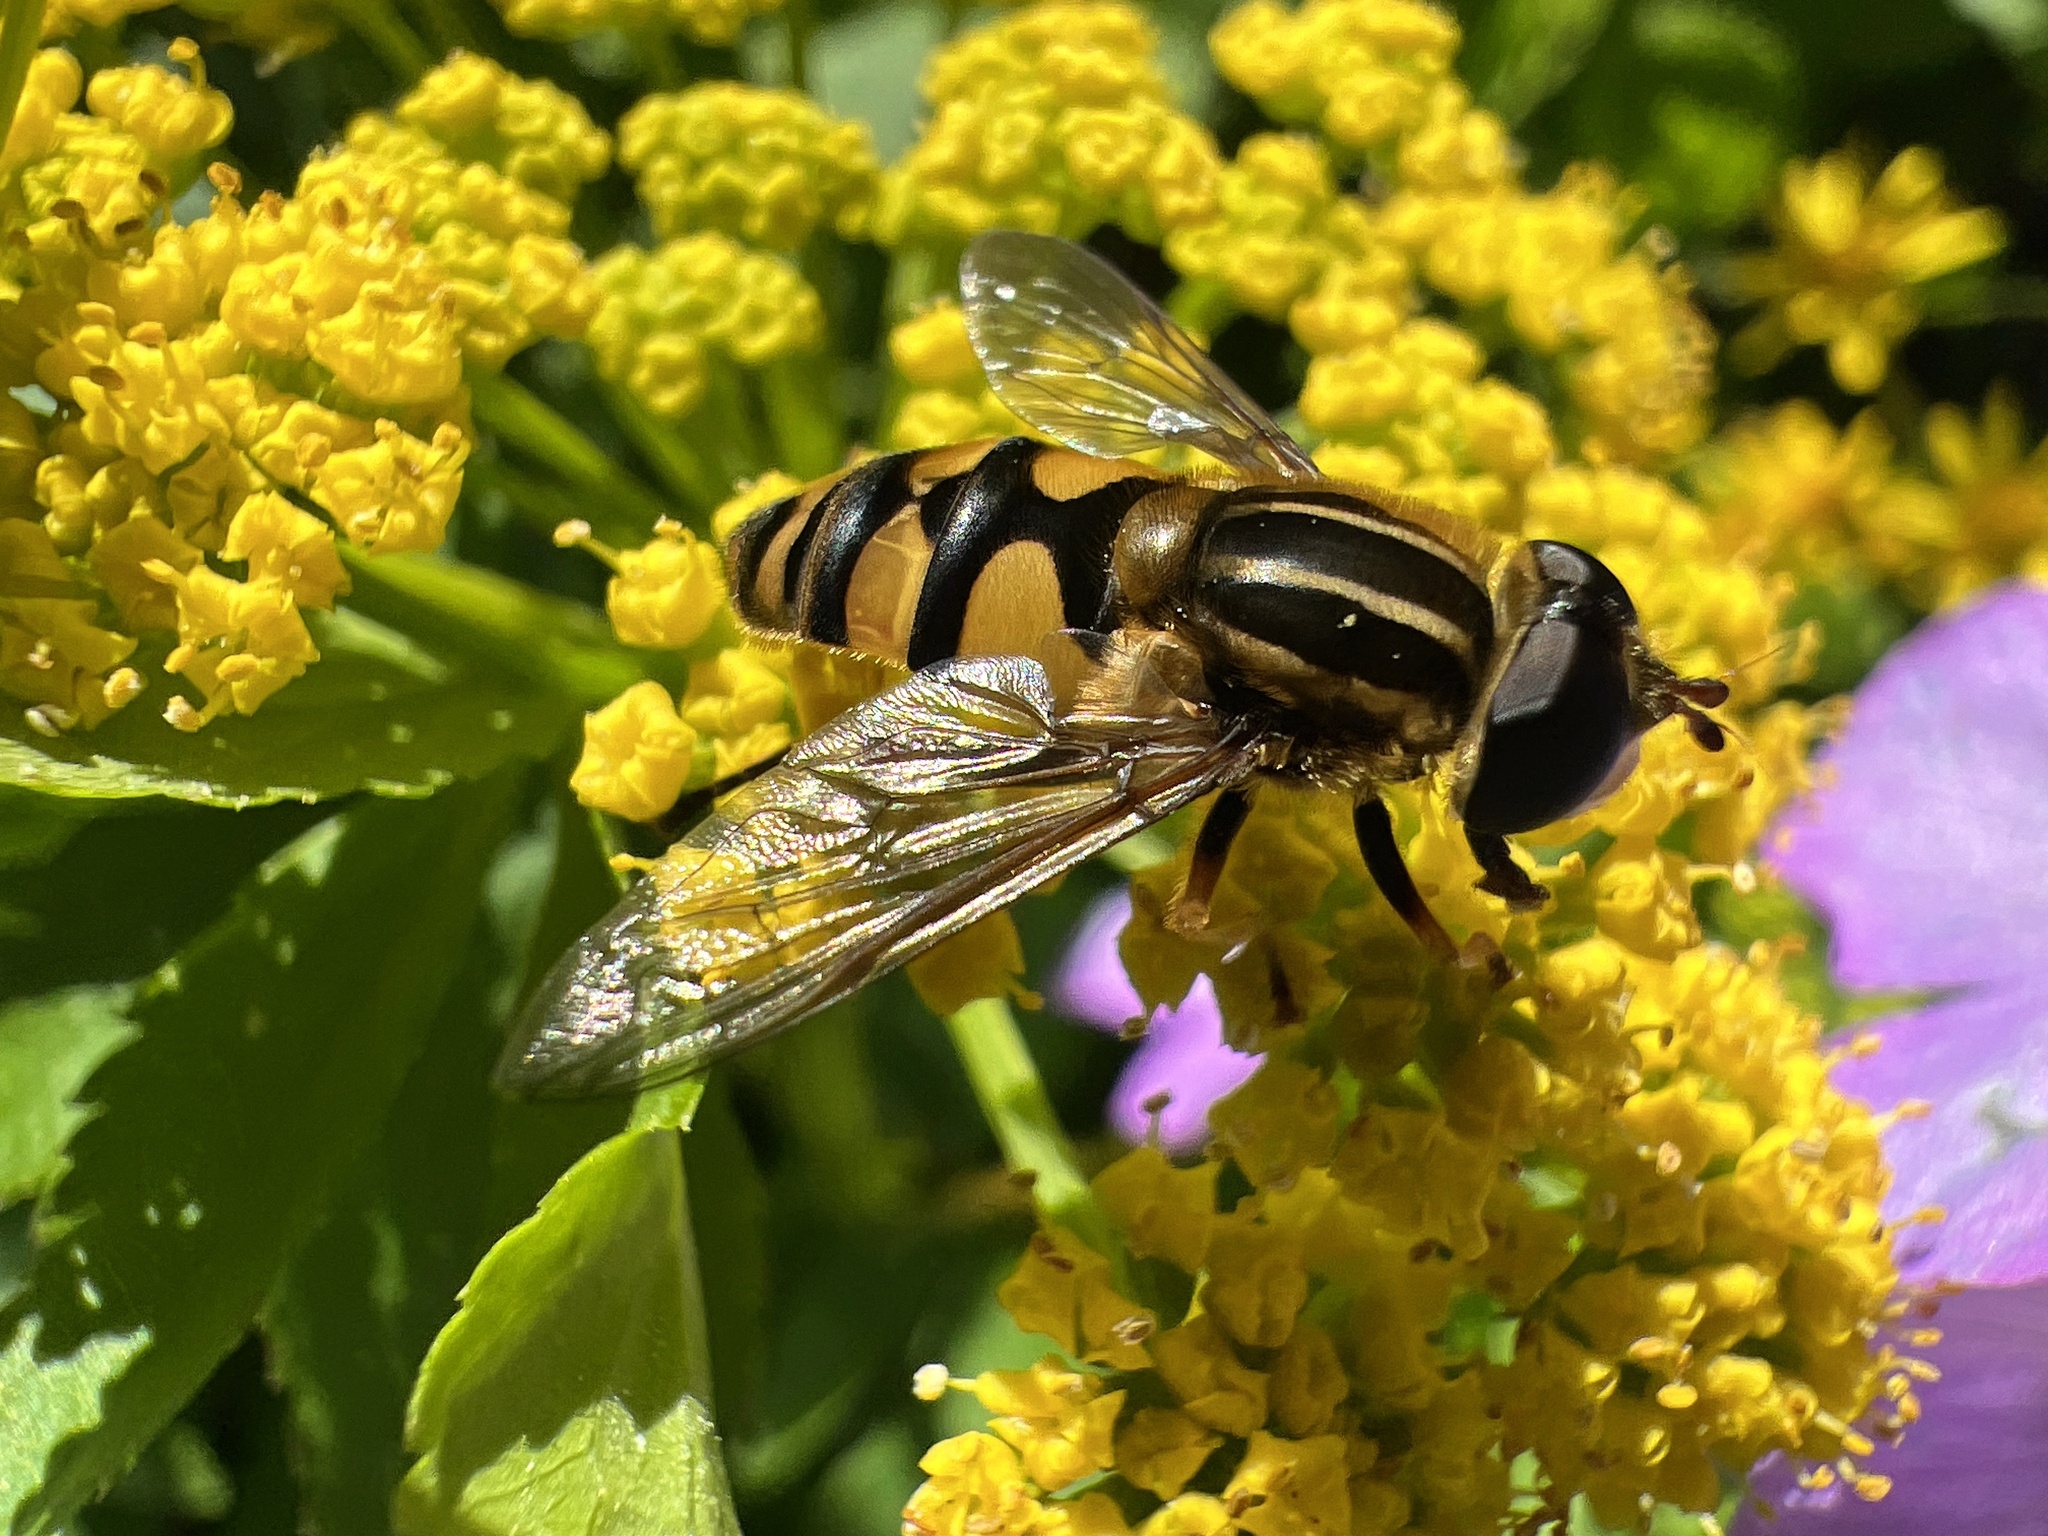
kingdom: Animalia
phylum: Arthropoda
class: Insecta
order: Diptera
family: Syrphidae
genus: Helophilus
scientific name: Helophilus fasciatus
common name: Narrow-headed marsh fly
